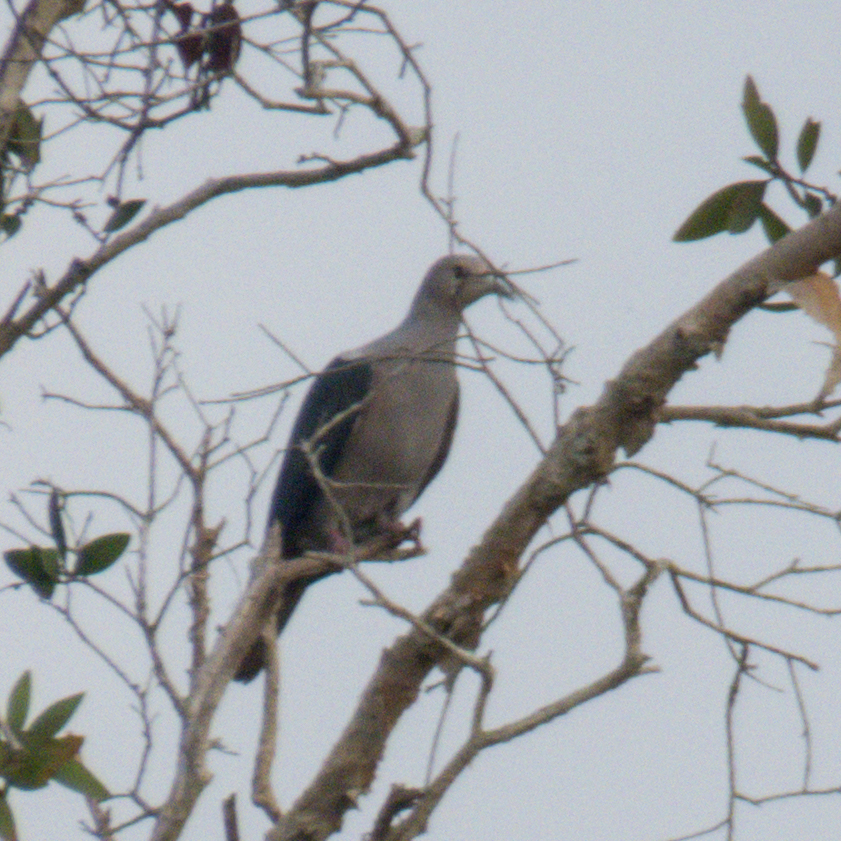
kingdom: Animalia
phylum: Chordata
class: Aves
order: Columbiformes
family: Columbidae
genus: Ducula
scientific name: Ducula aenea
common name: Green imperial pigeon
